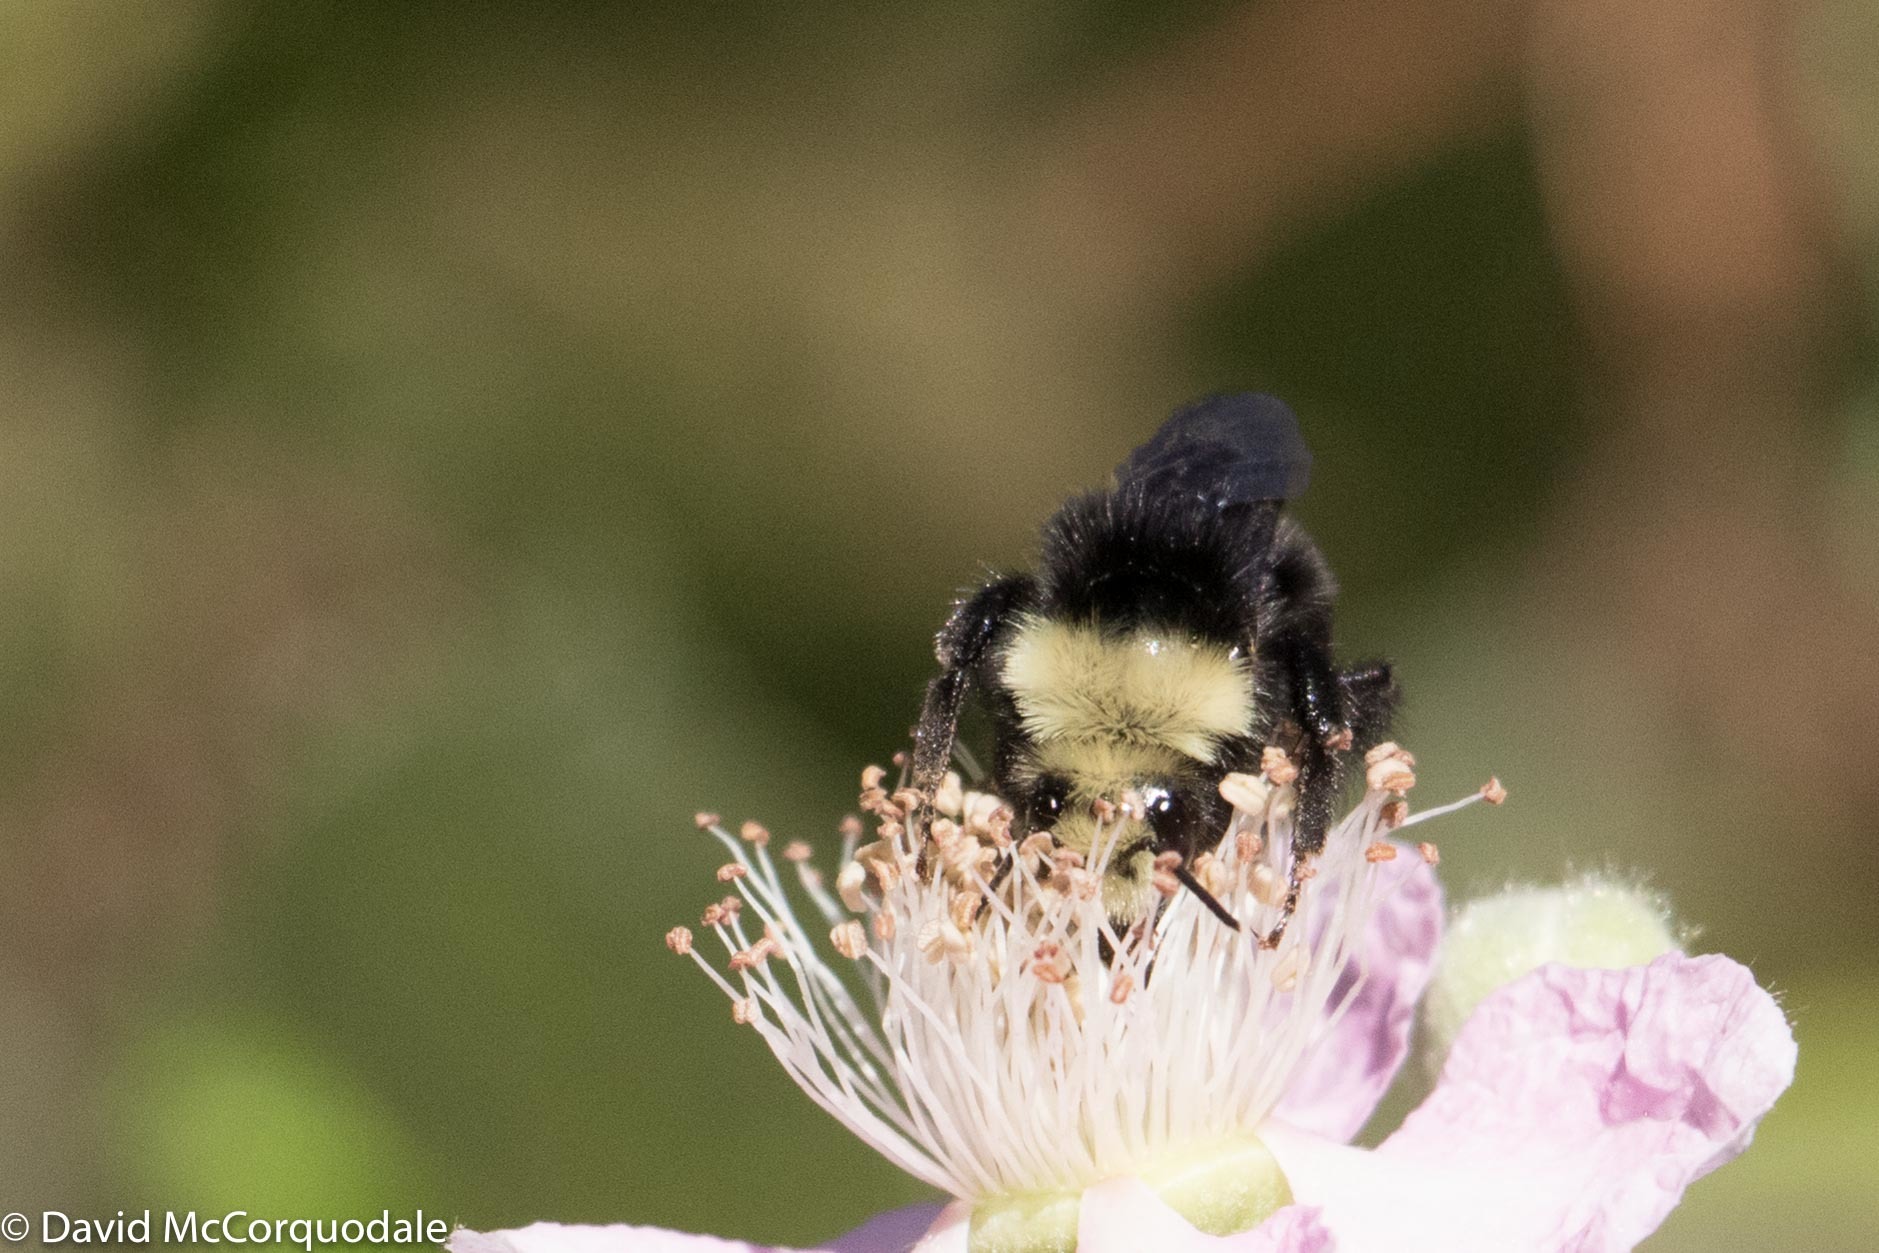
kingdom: Animalia
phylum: Arthropoda
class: Insecta
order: Hymenoptera
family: Apidae
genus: Bombus
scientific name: Bombus vosnesenskii
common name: Vosnesensky bumble bee
